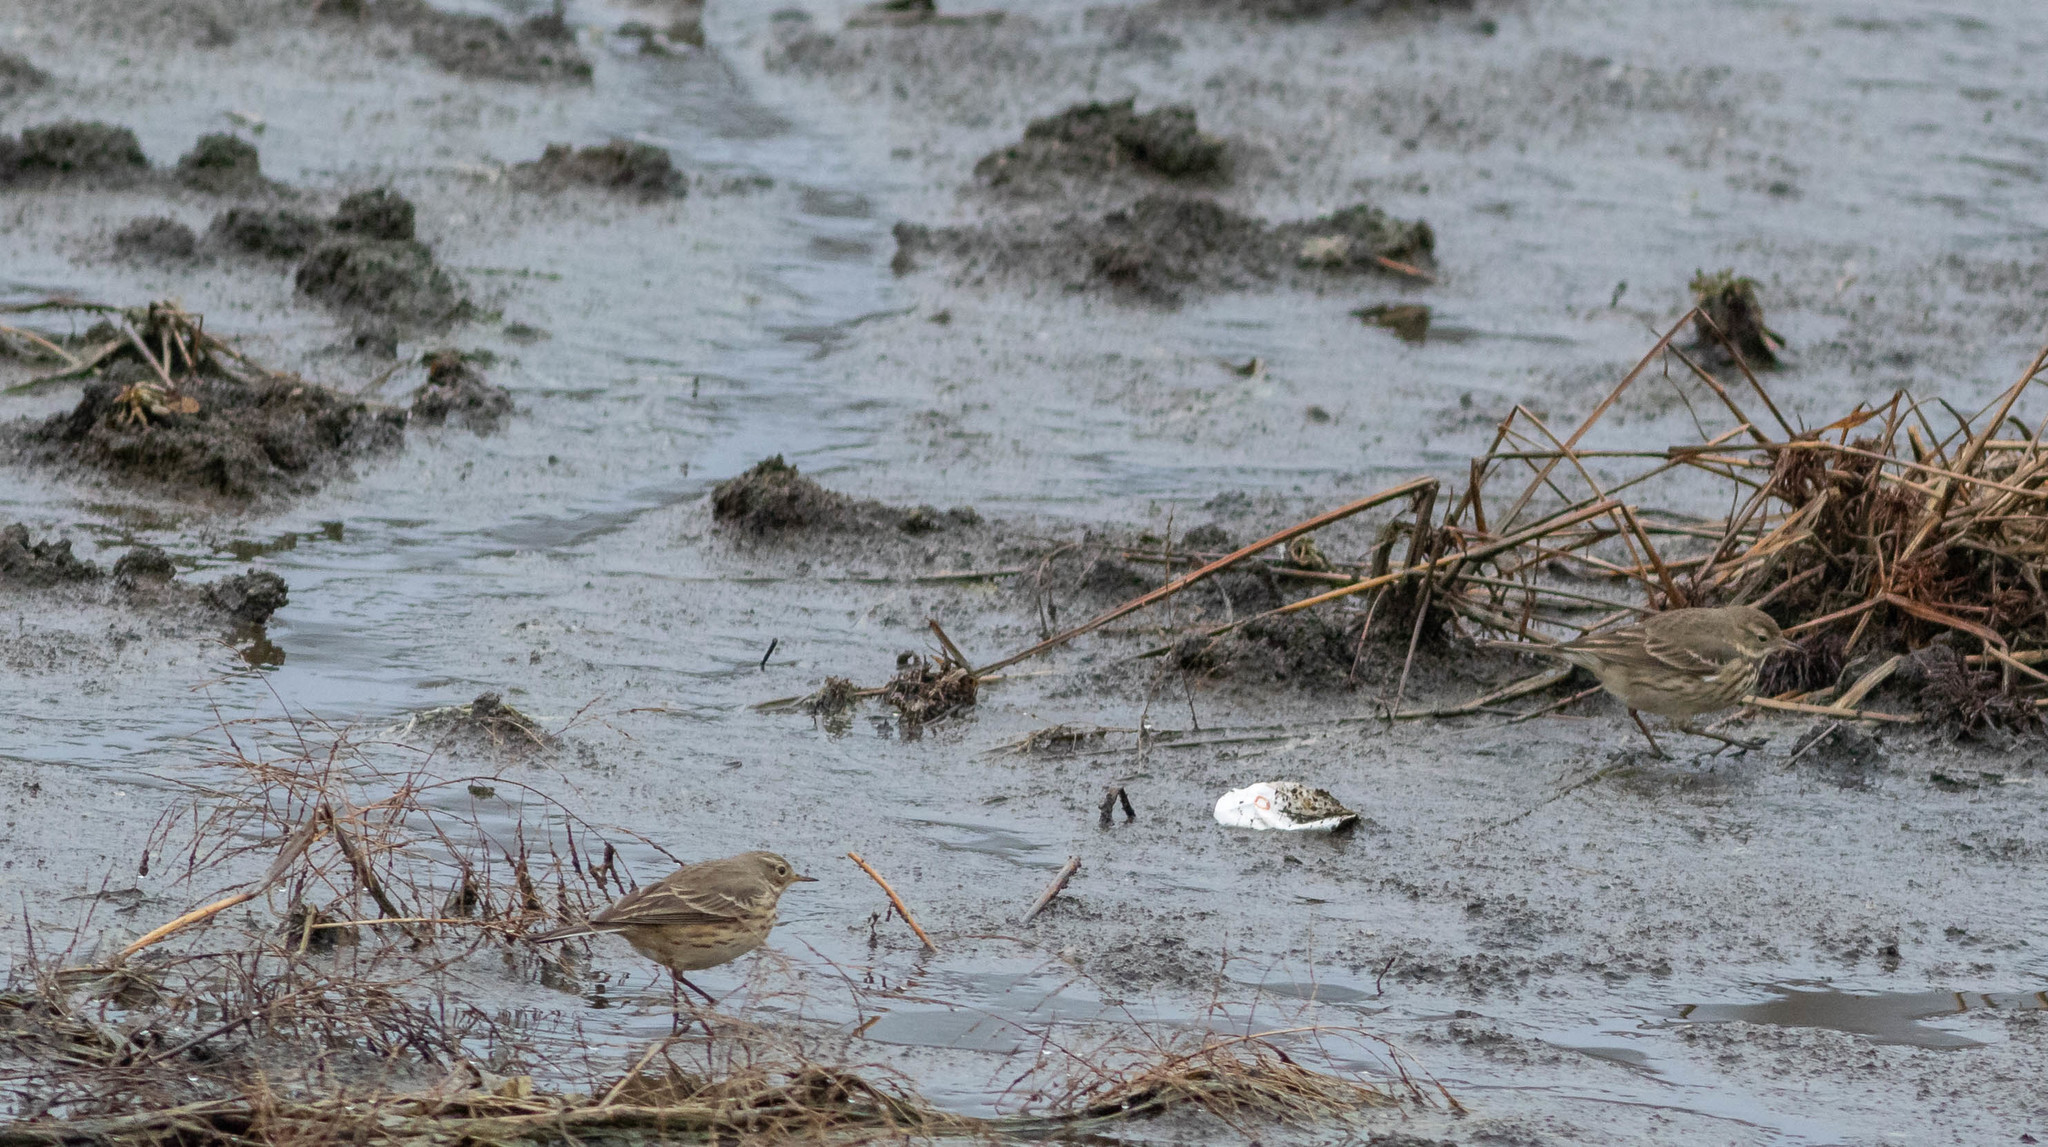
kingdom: Animalia
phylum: Chordata
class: Aves
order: Passeriformes
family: Motacillidae
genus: Anthus
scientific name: Anthus rubescens
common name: Buff-bellied pipit
